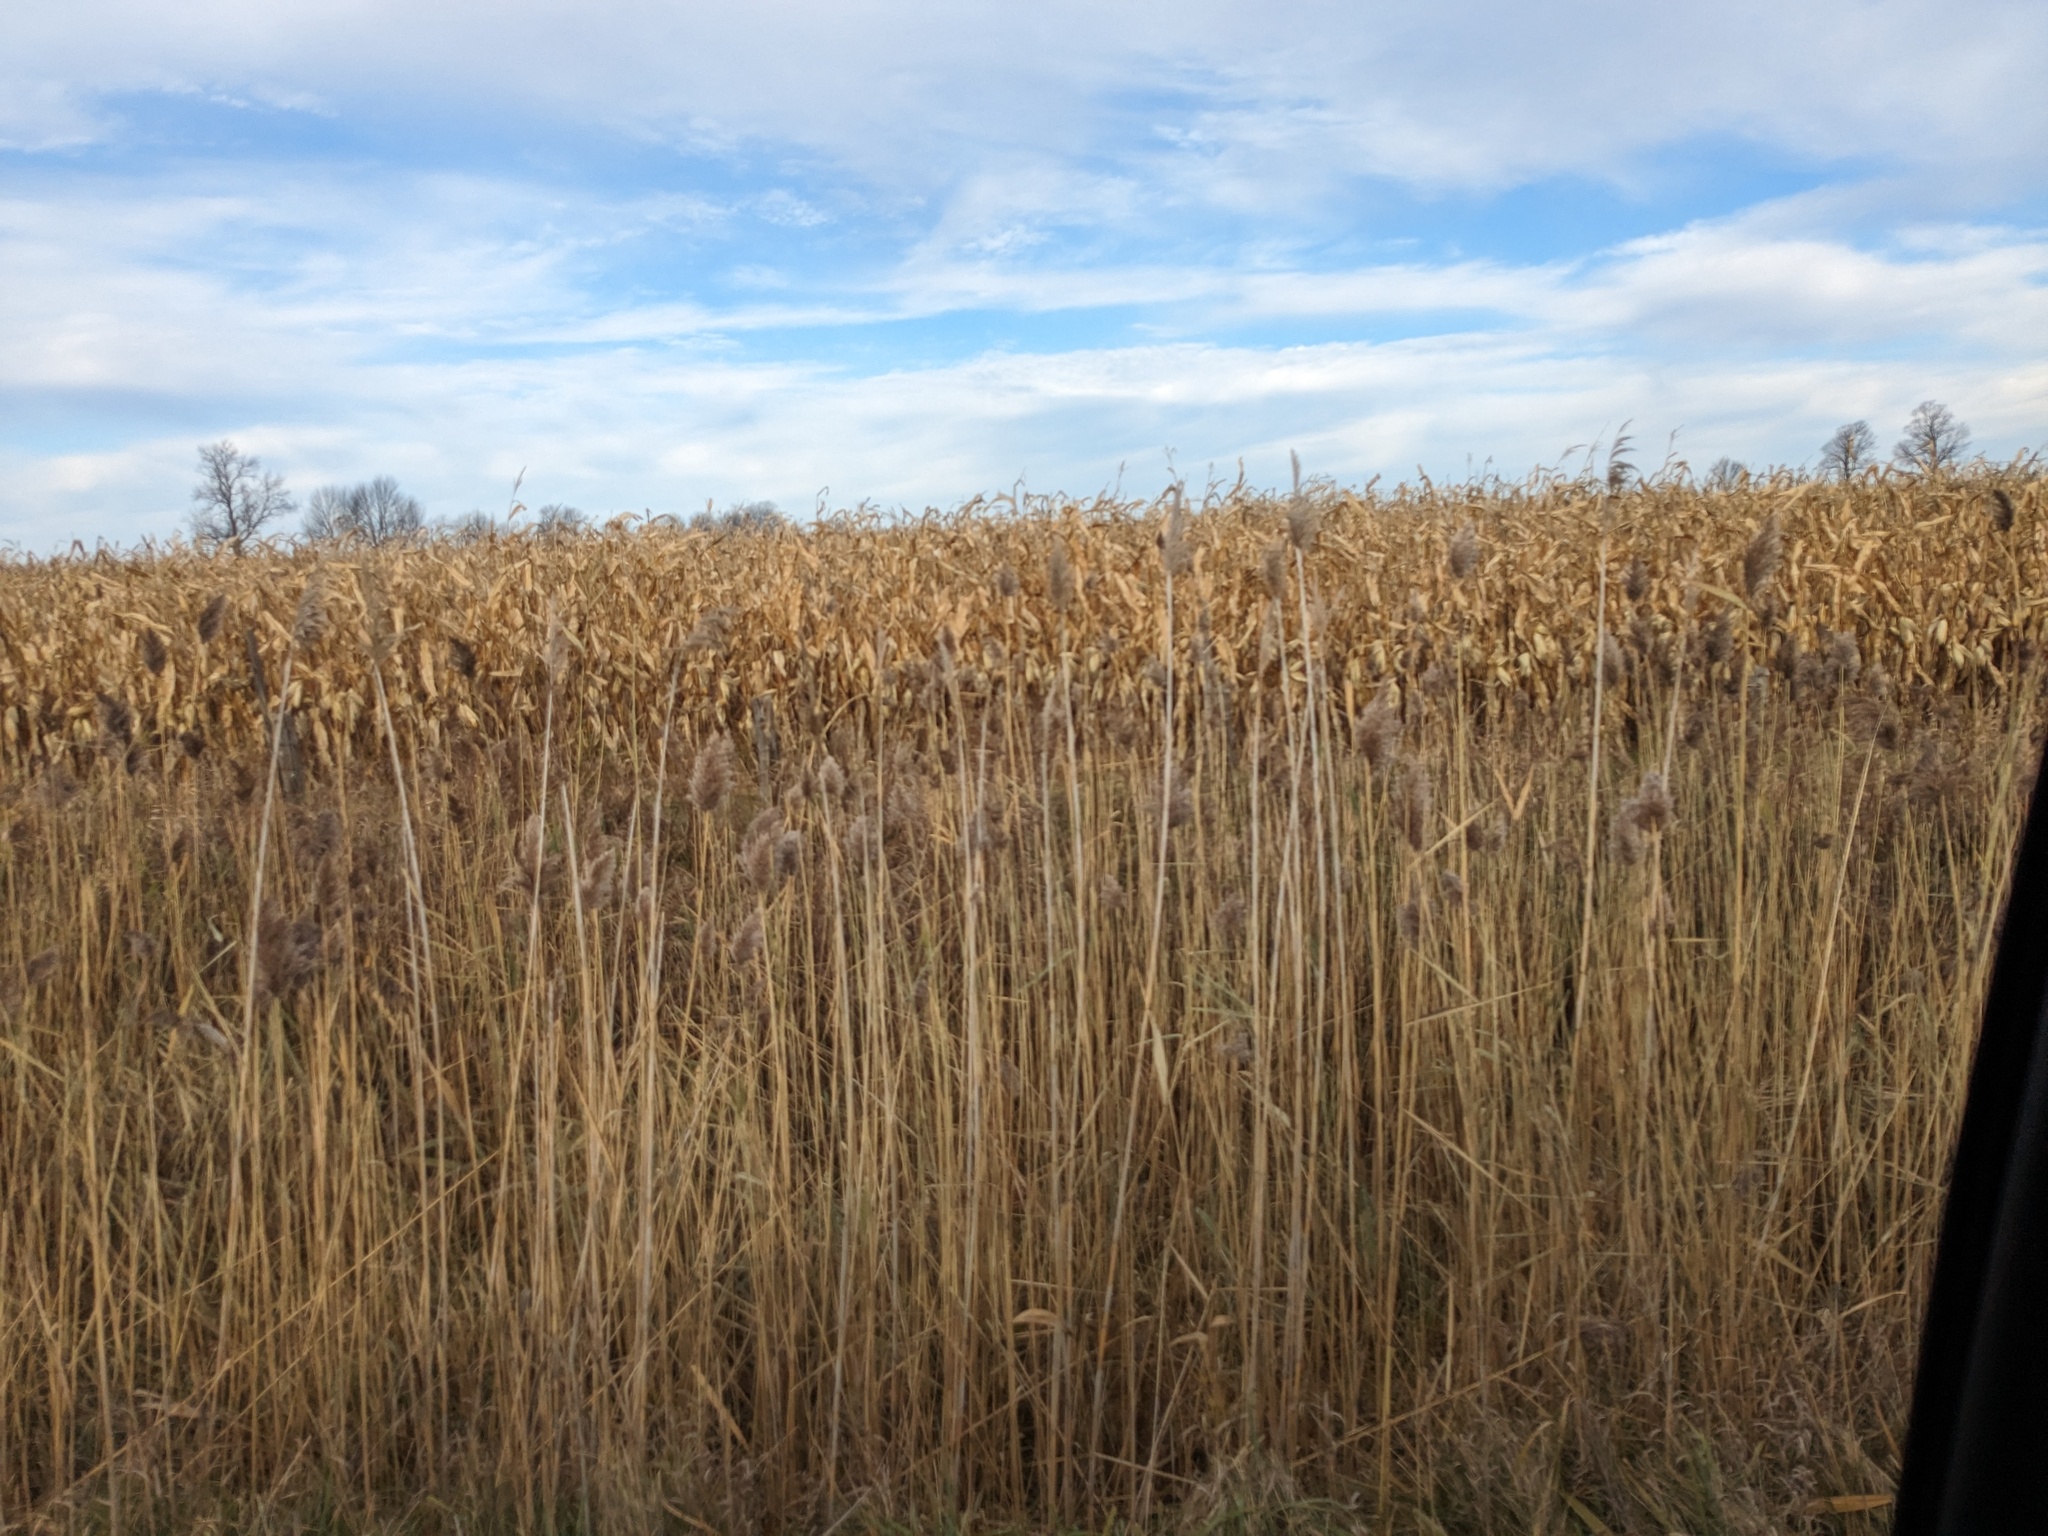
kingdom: Plantae
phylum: Tracheophyta
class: Liliopsida
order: Poales
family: Poaceae
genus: Phragmites
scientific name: Phragmites australis
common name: Common reed
